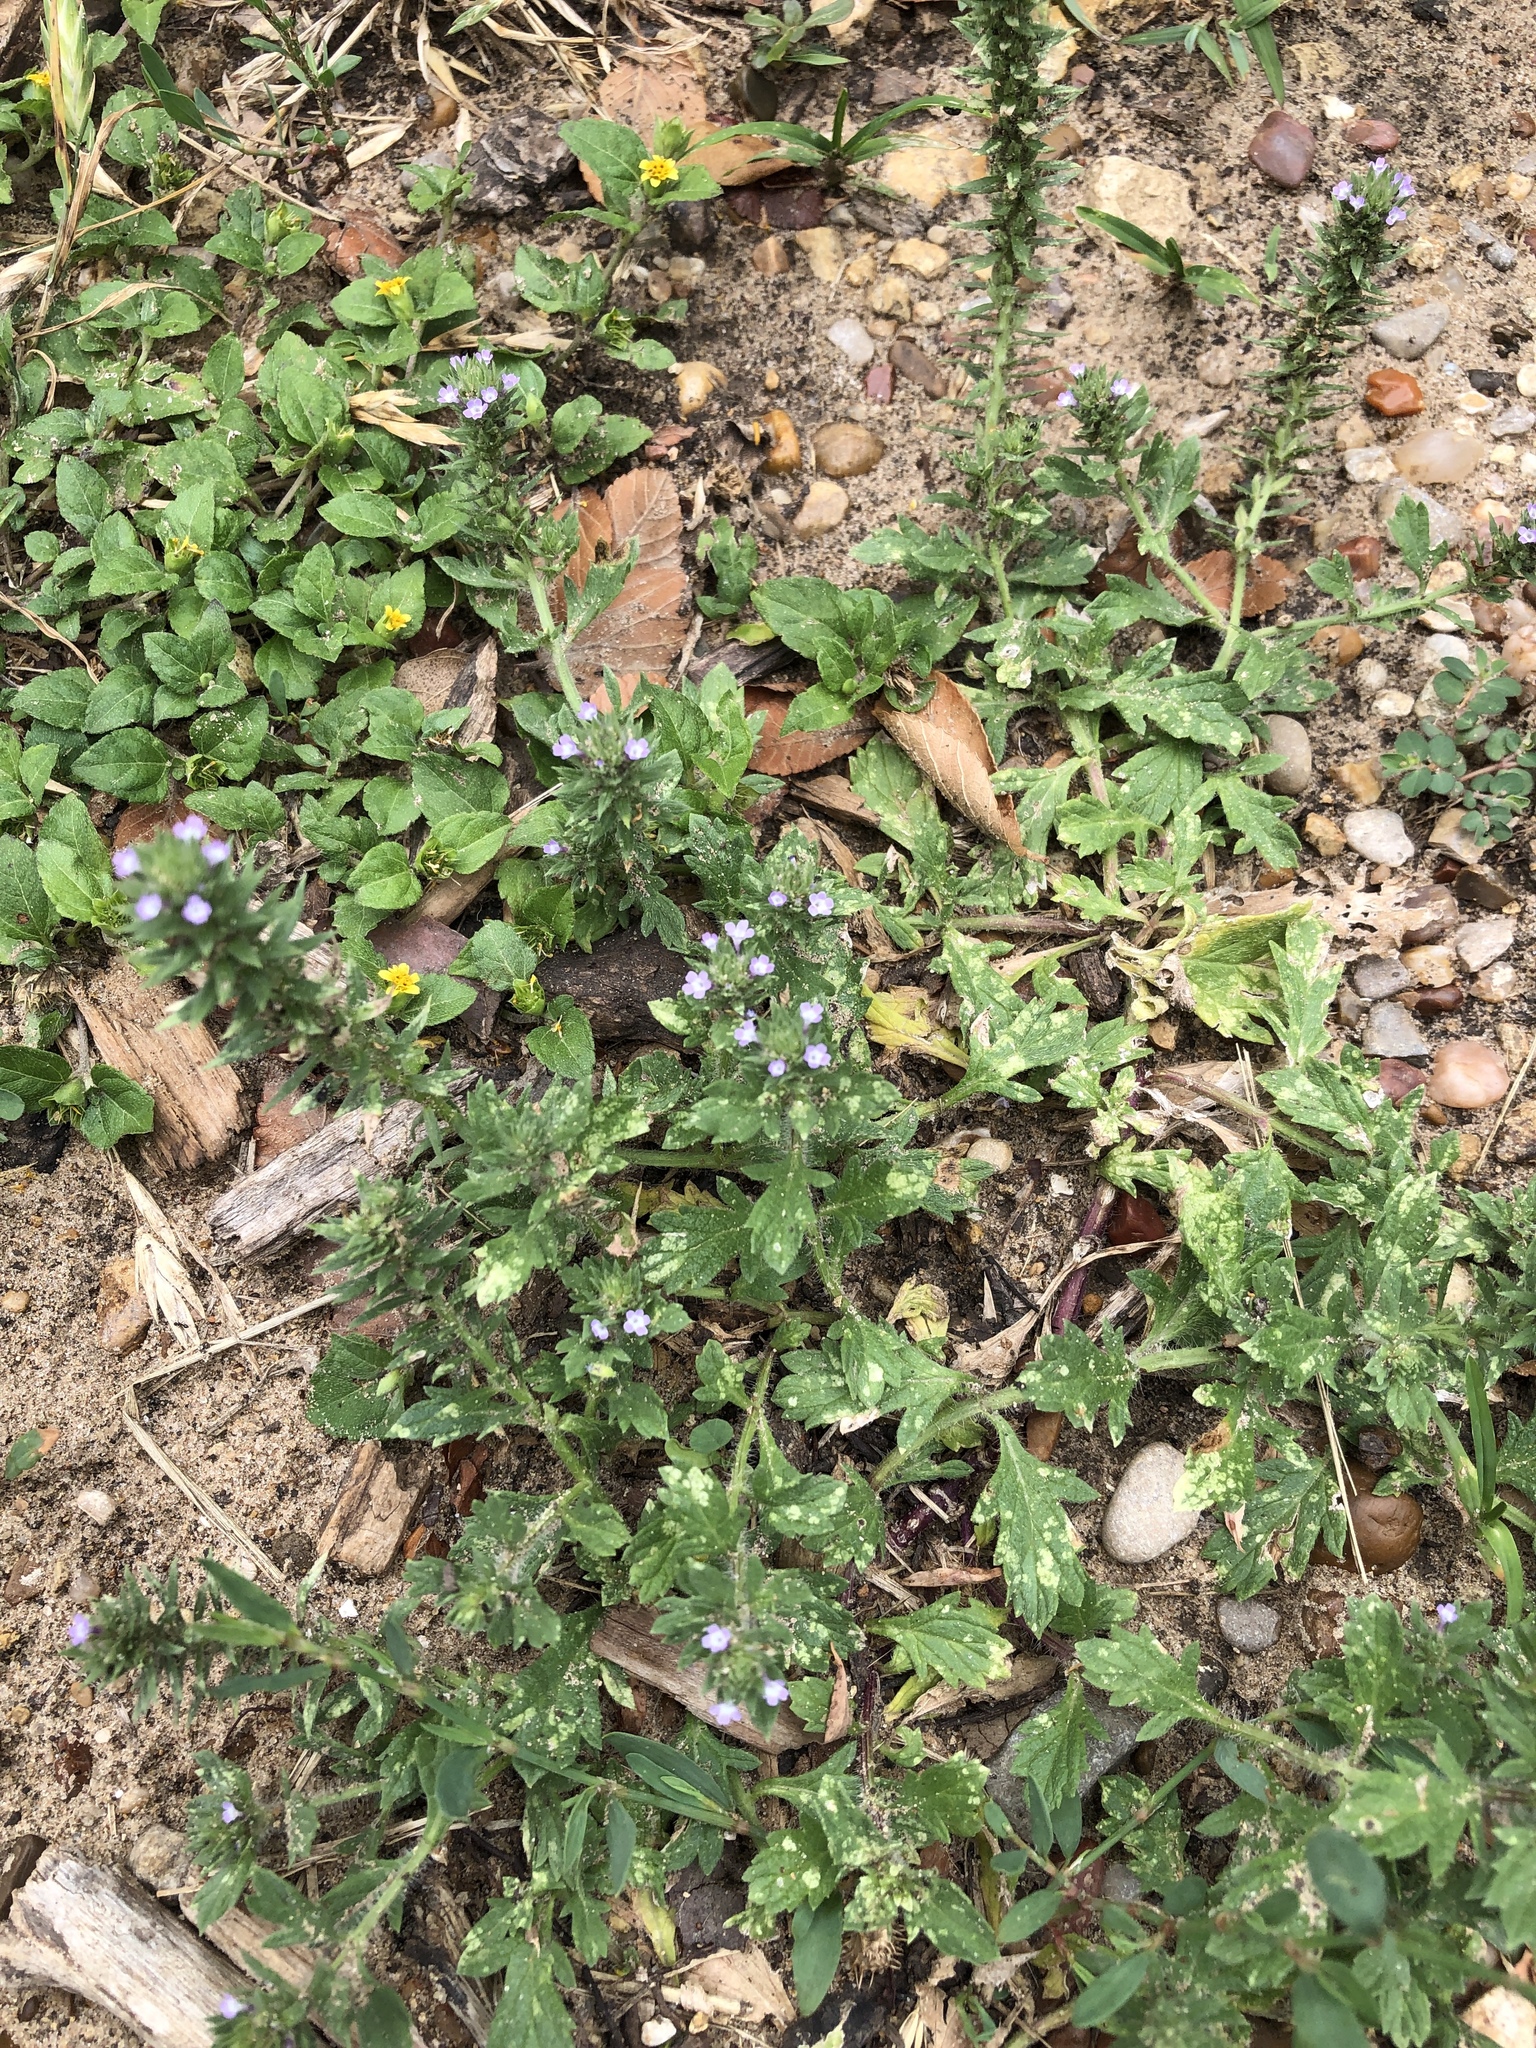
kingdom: Plantae
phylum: Tracheophyta
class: Magnoliopsida
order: Lamiales
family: Verbenaceae
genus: Verbena
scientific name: Verbena bracteata
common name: Bracted vervain
